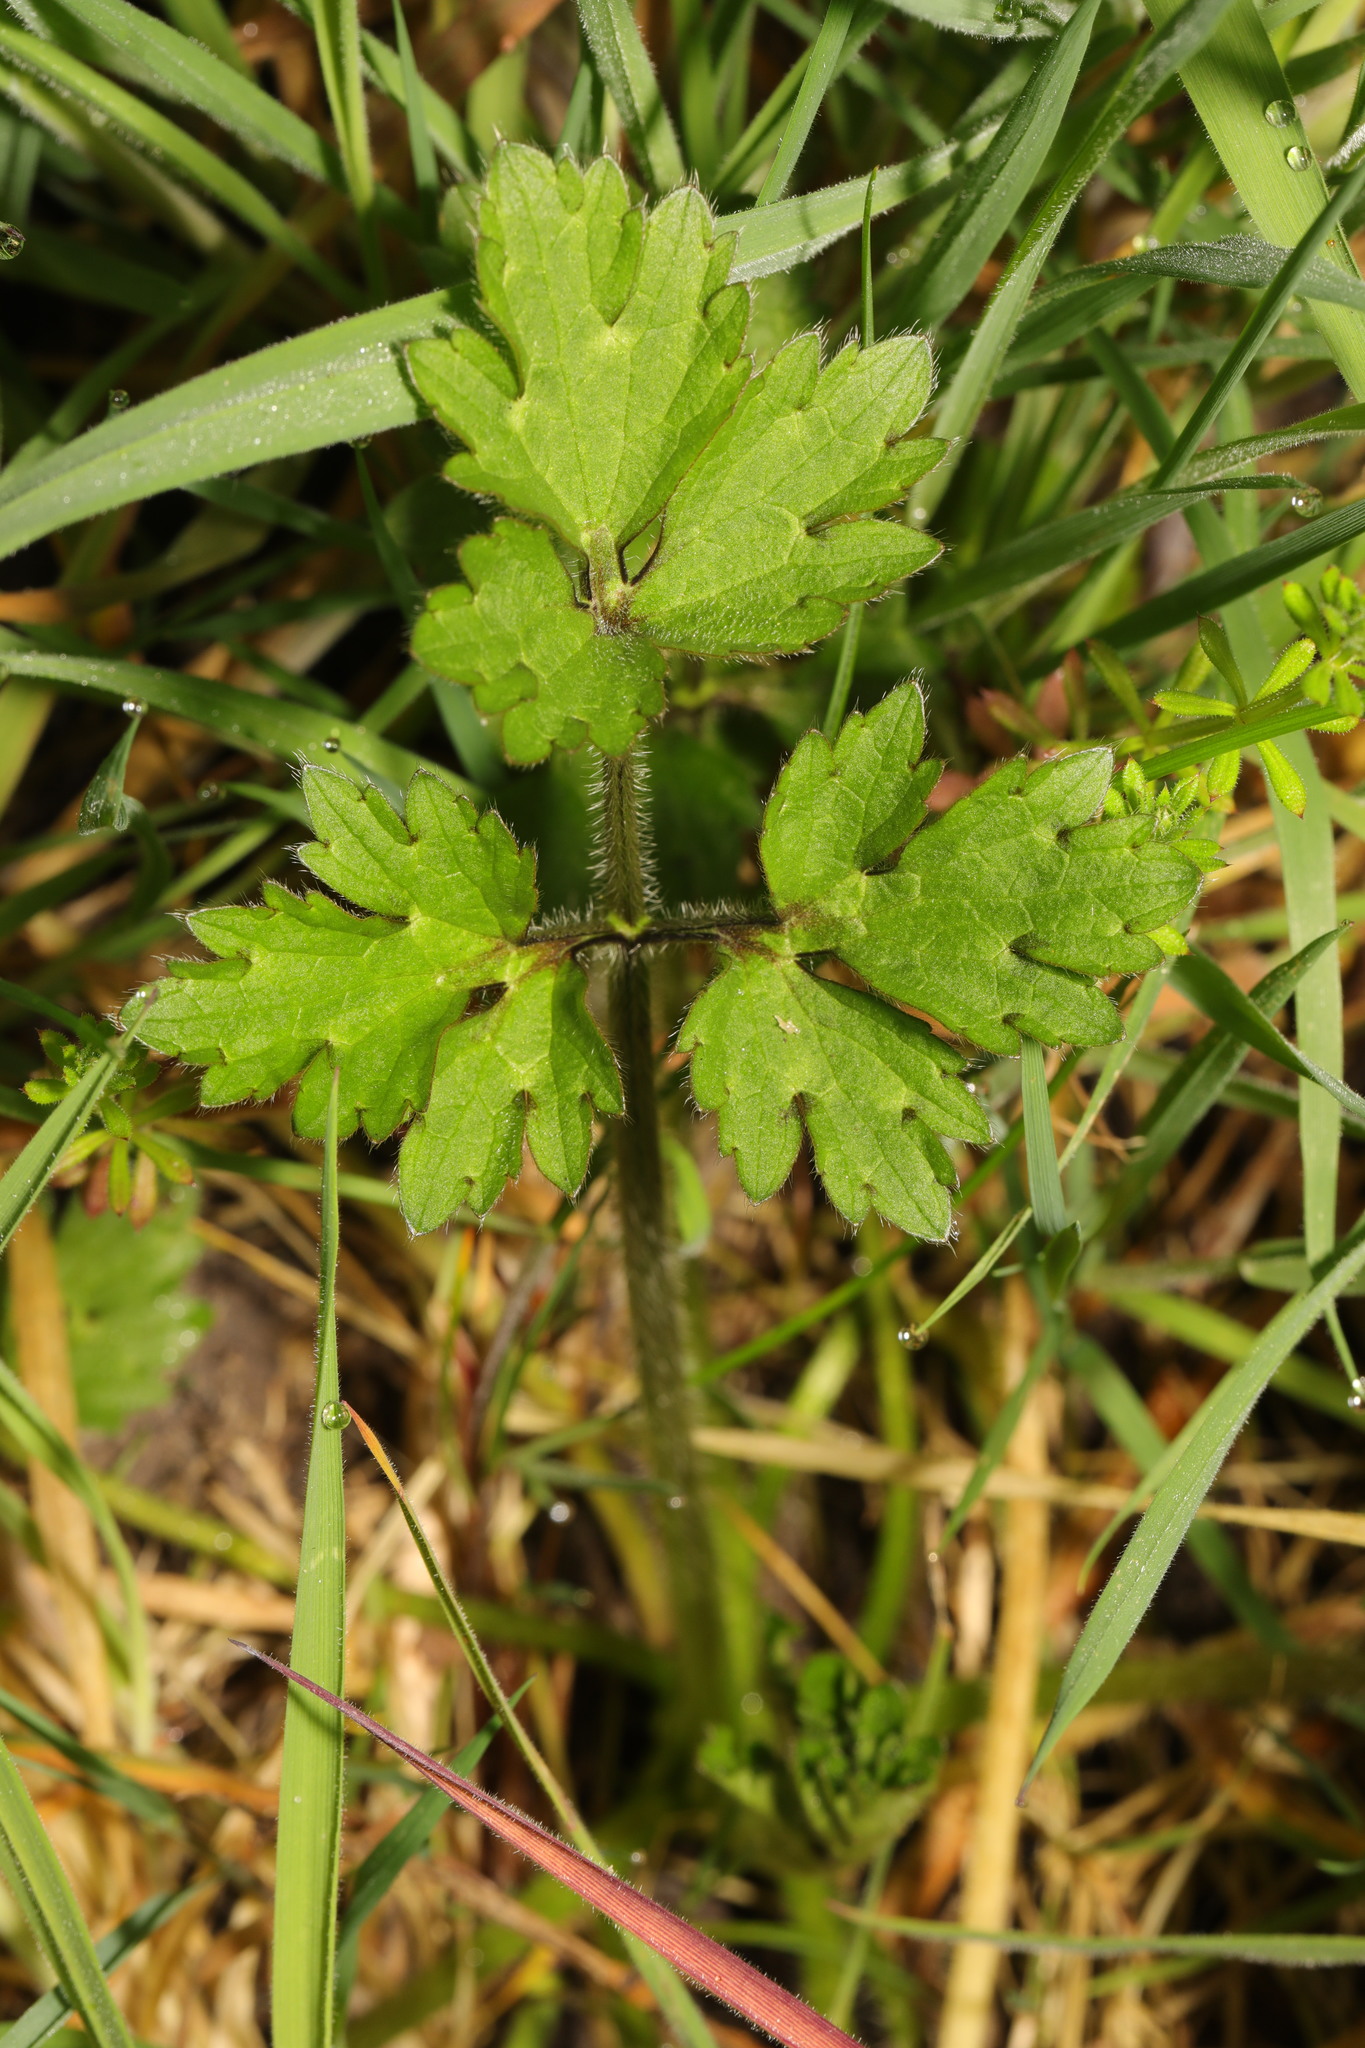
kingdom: Plantae
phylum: Tracheophyta
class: Magnoliopsida
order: Ranunculales
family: Ranunculaceae
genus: Ranunculus
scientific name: Ranunculus repens
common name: Creeping buttercup
